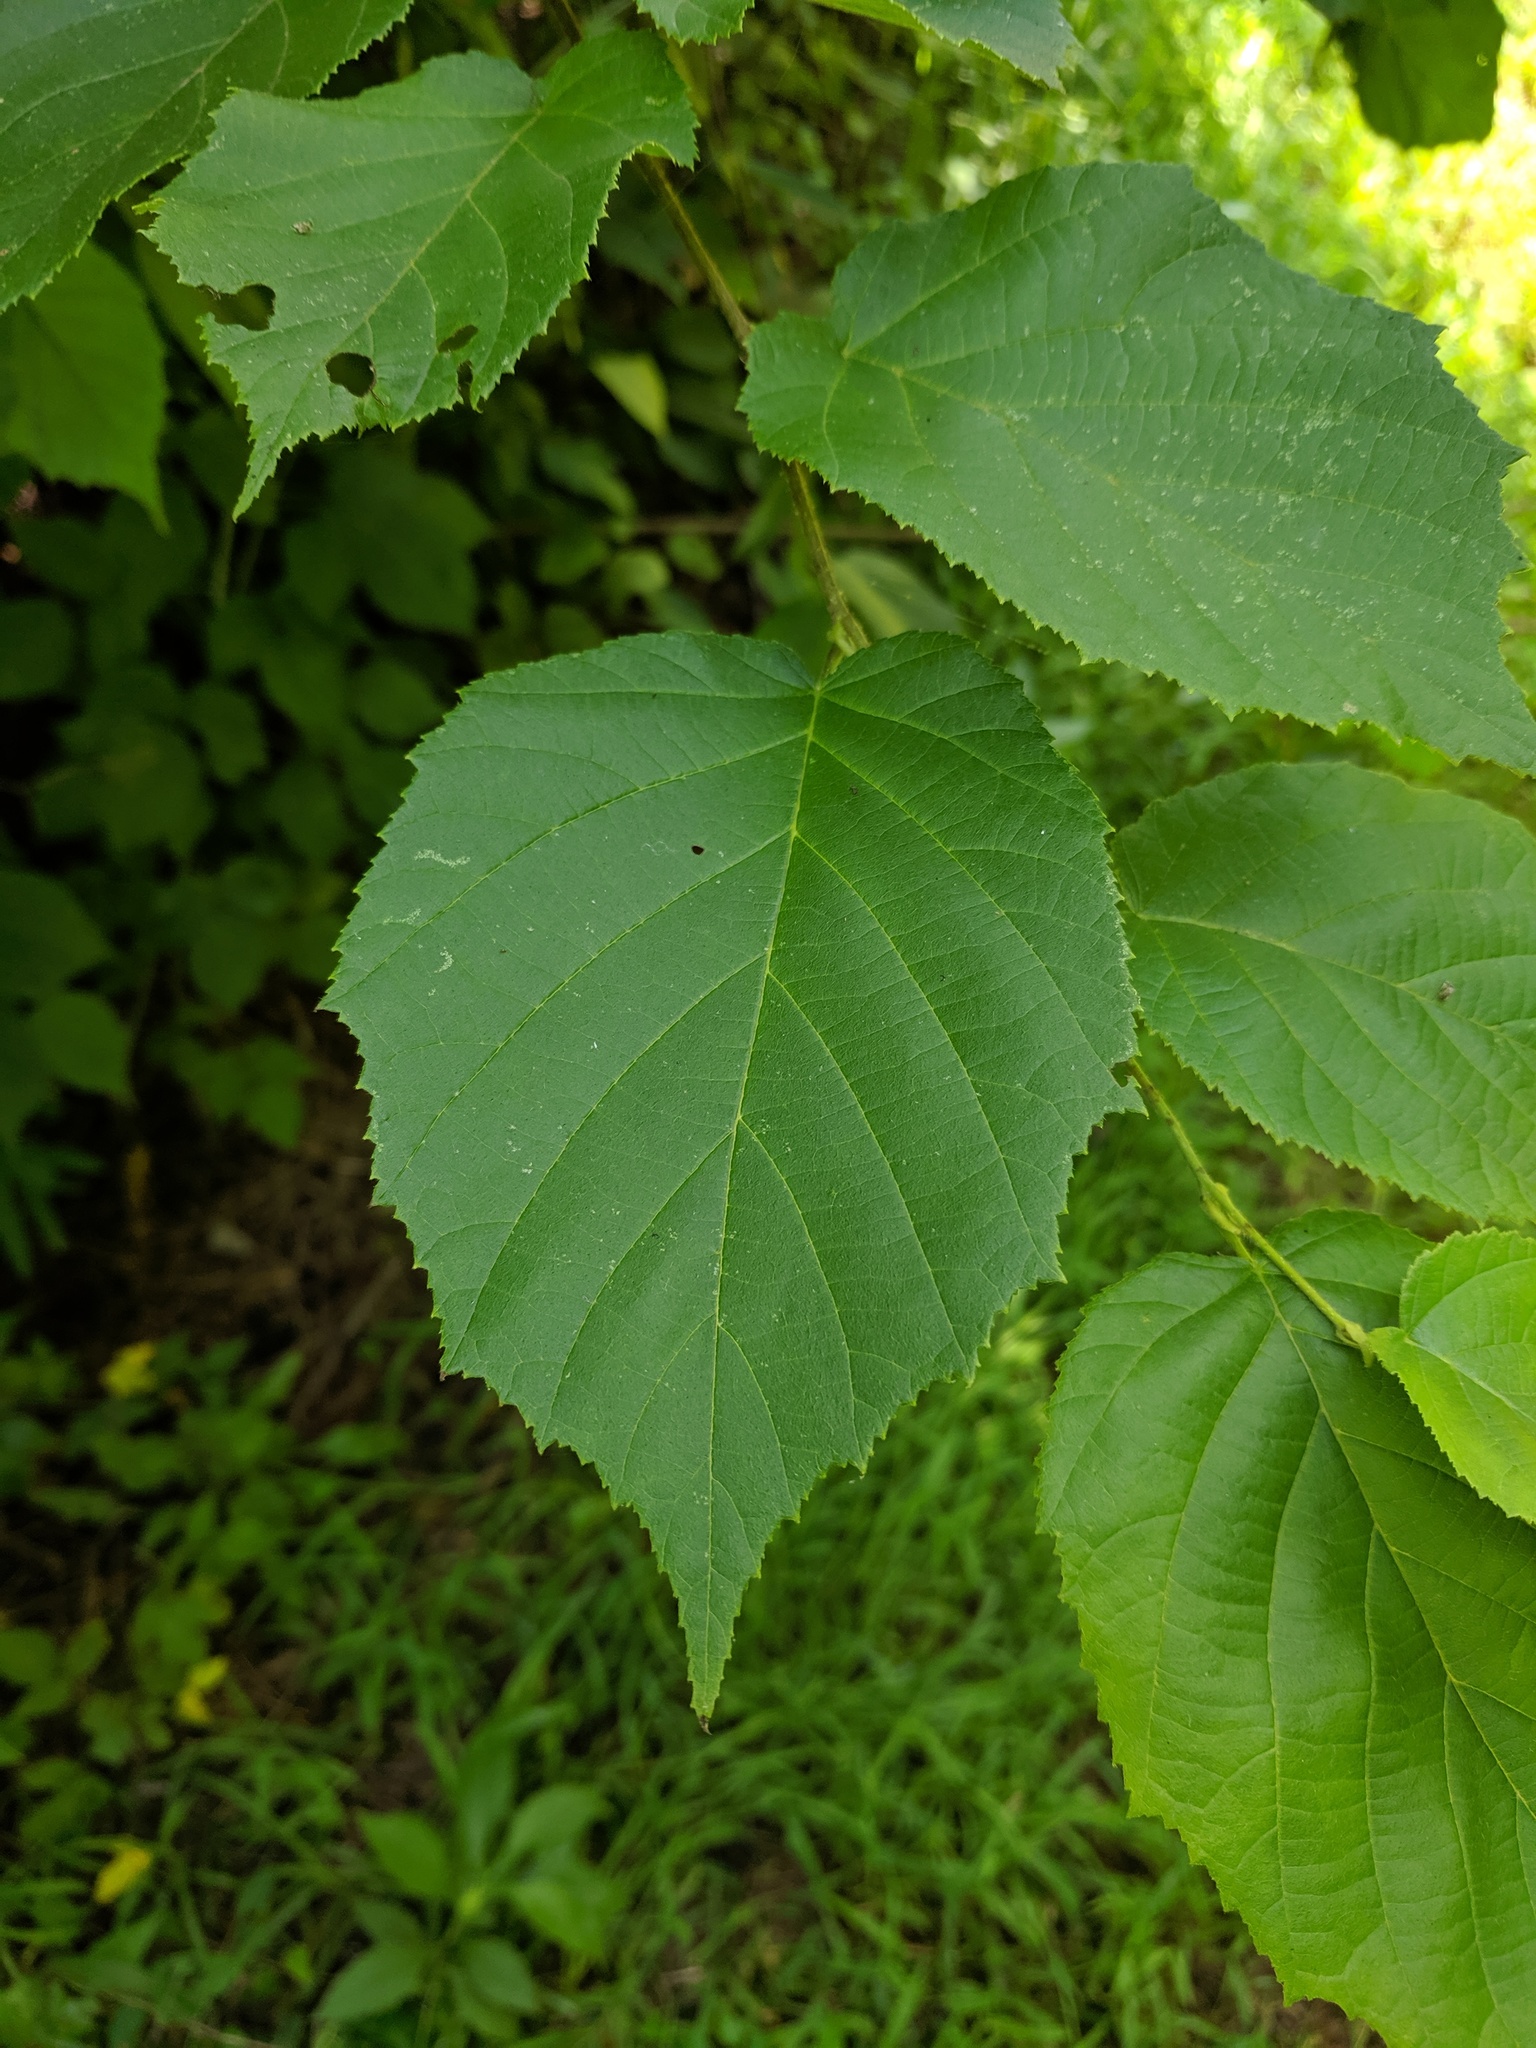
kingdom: Plantae
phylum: Tracheophyta
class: Magnoliopsida
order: Fagales
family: Betulaceae
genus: Corylus
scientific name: Corylus americana
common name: American hazel
